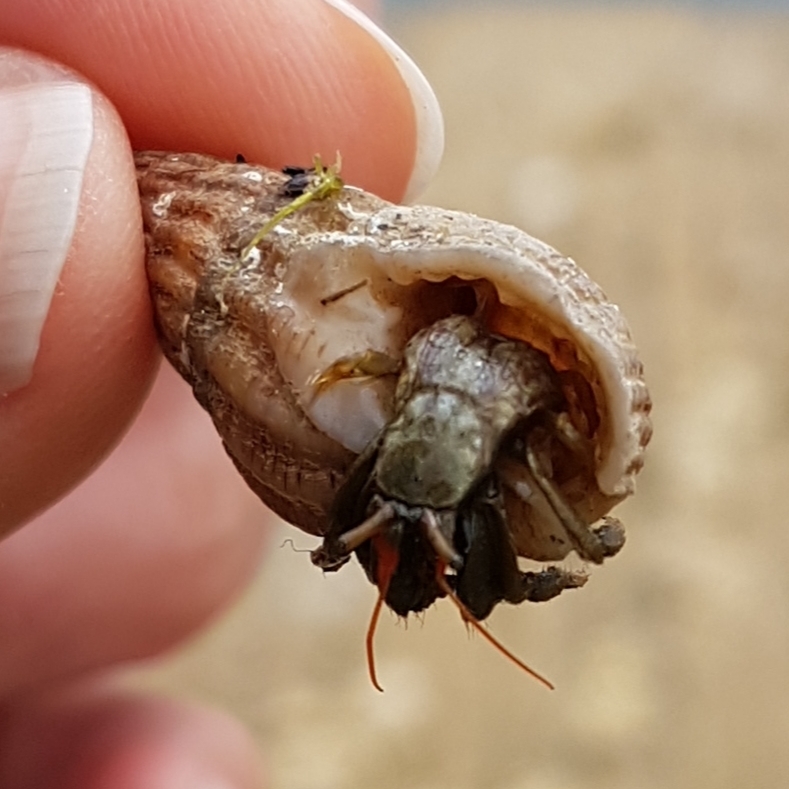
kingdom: Animalia
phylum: Arthropoda
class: Malacostraca
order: Decapoda
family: Diogenidae
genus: Clibanarius
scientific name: Clibanarius erythropus
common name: Hermit crab
